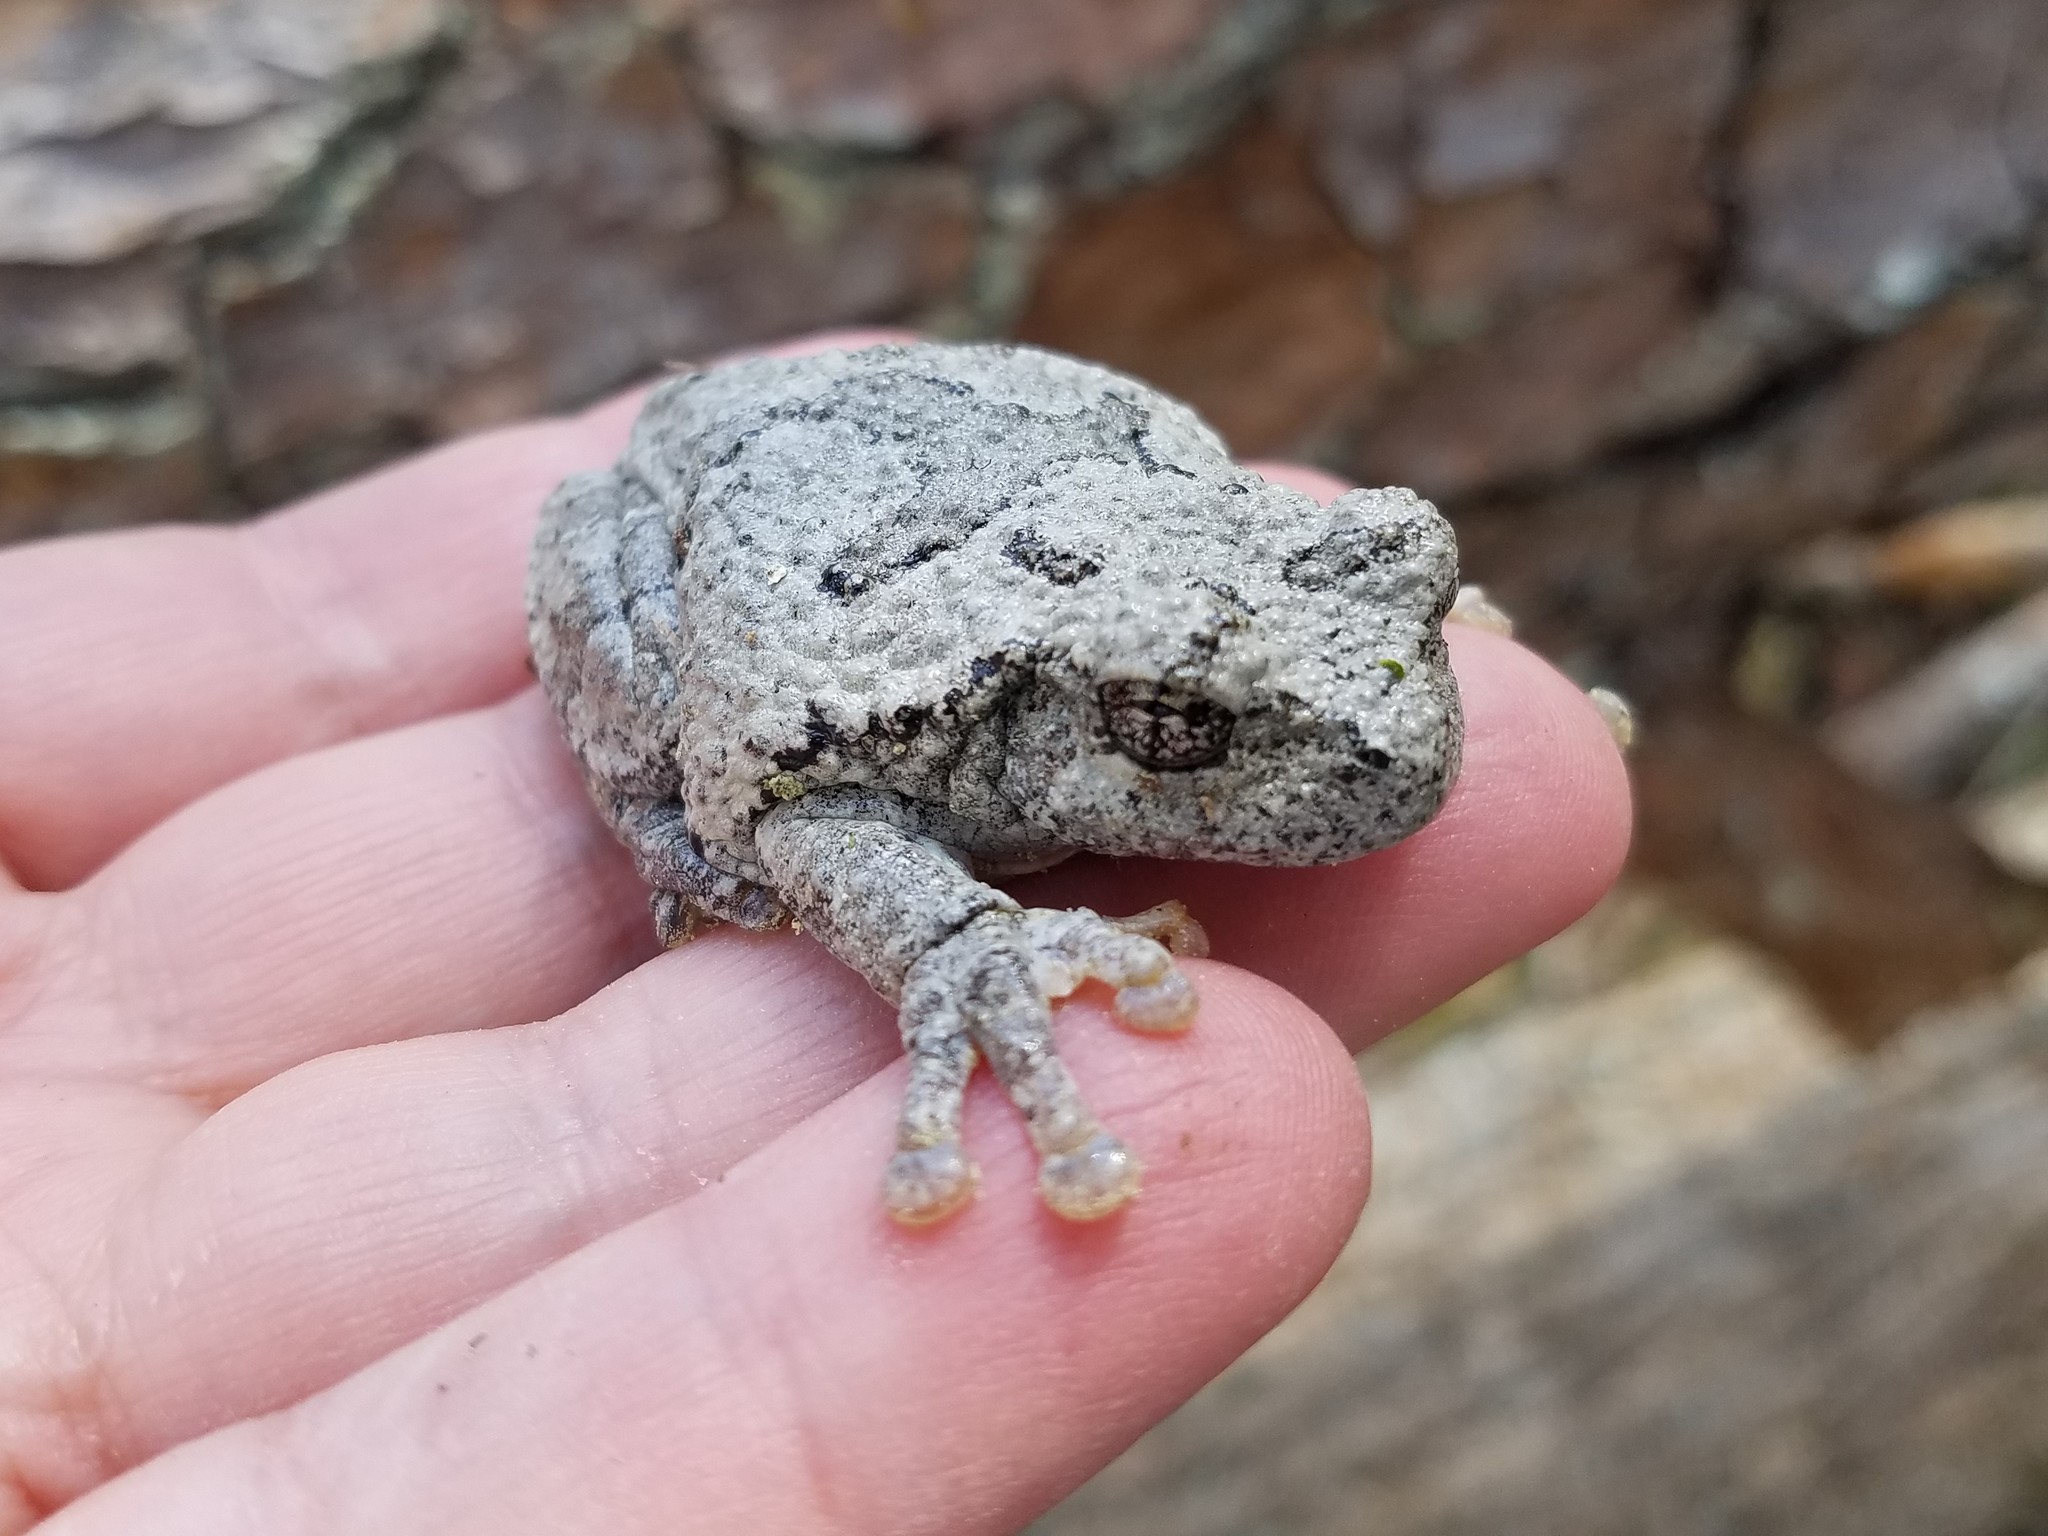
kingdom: Animalia
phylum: Chordata
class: Amphibia
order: Anura
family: Hylidae
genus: Dryophytes
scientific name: Dryophytes chrysoscelis
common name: Cope's gray treefrog
